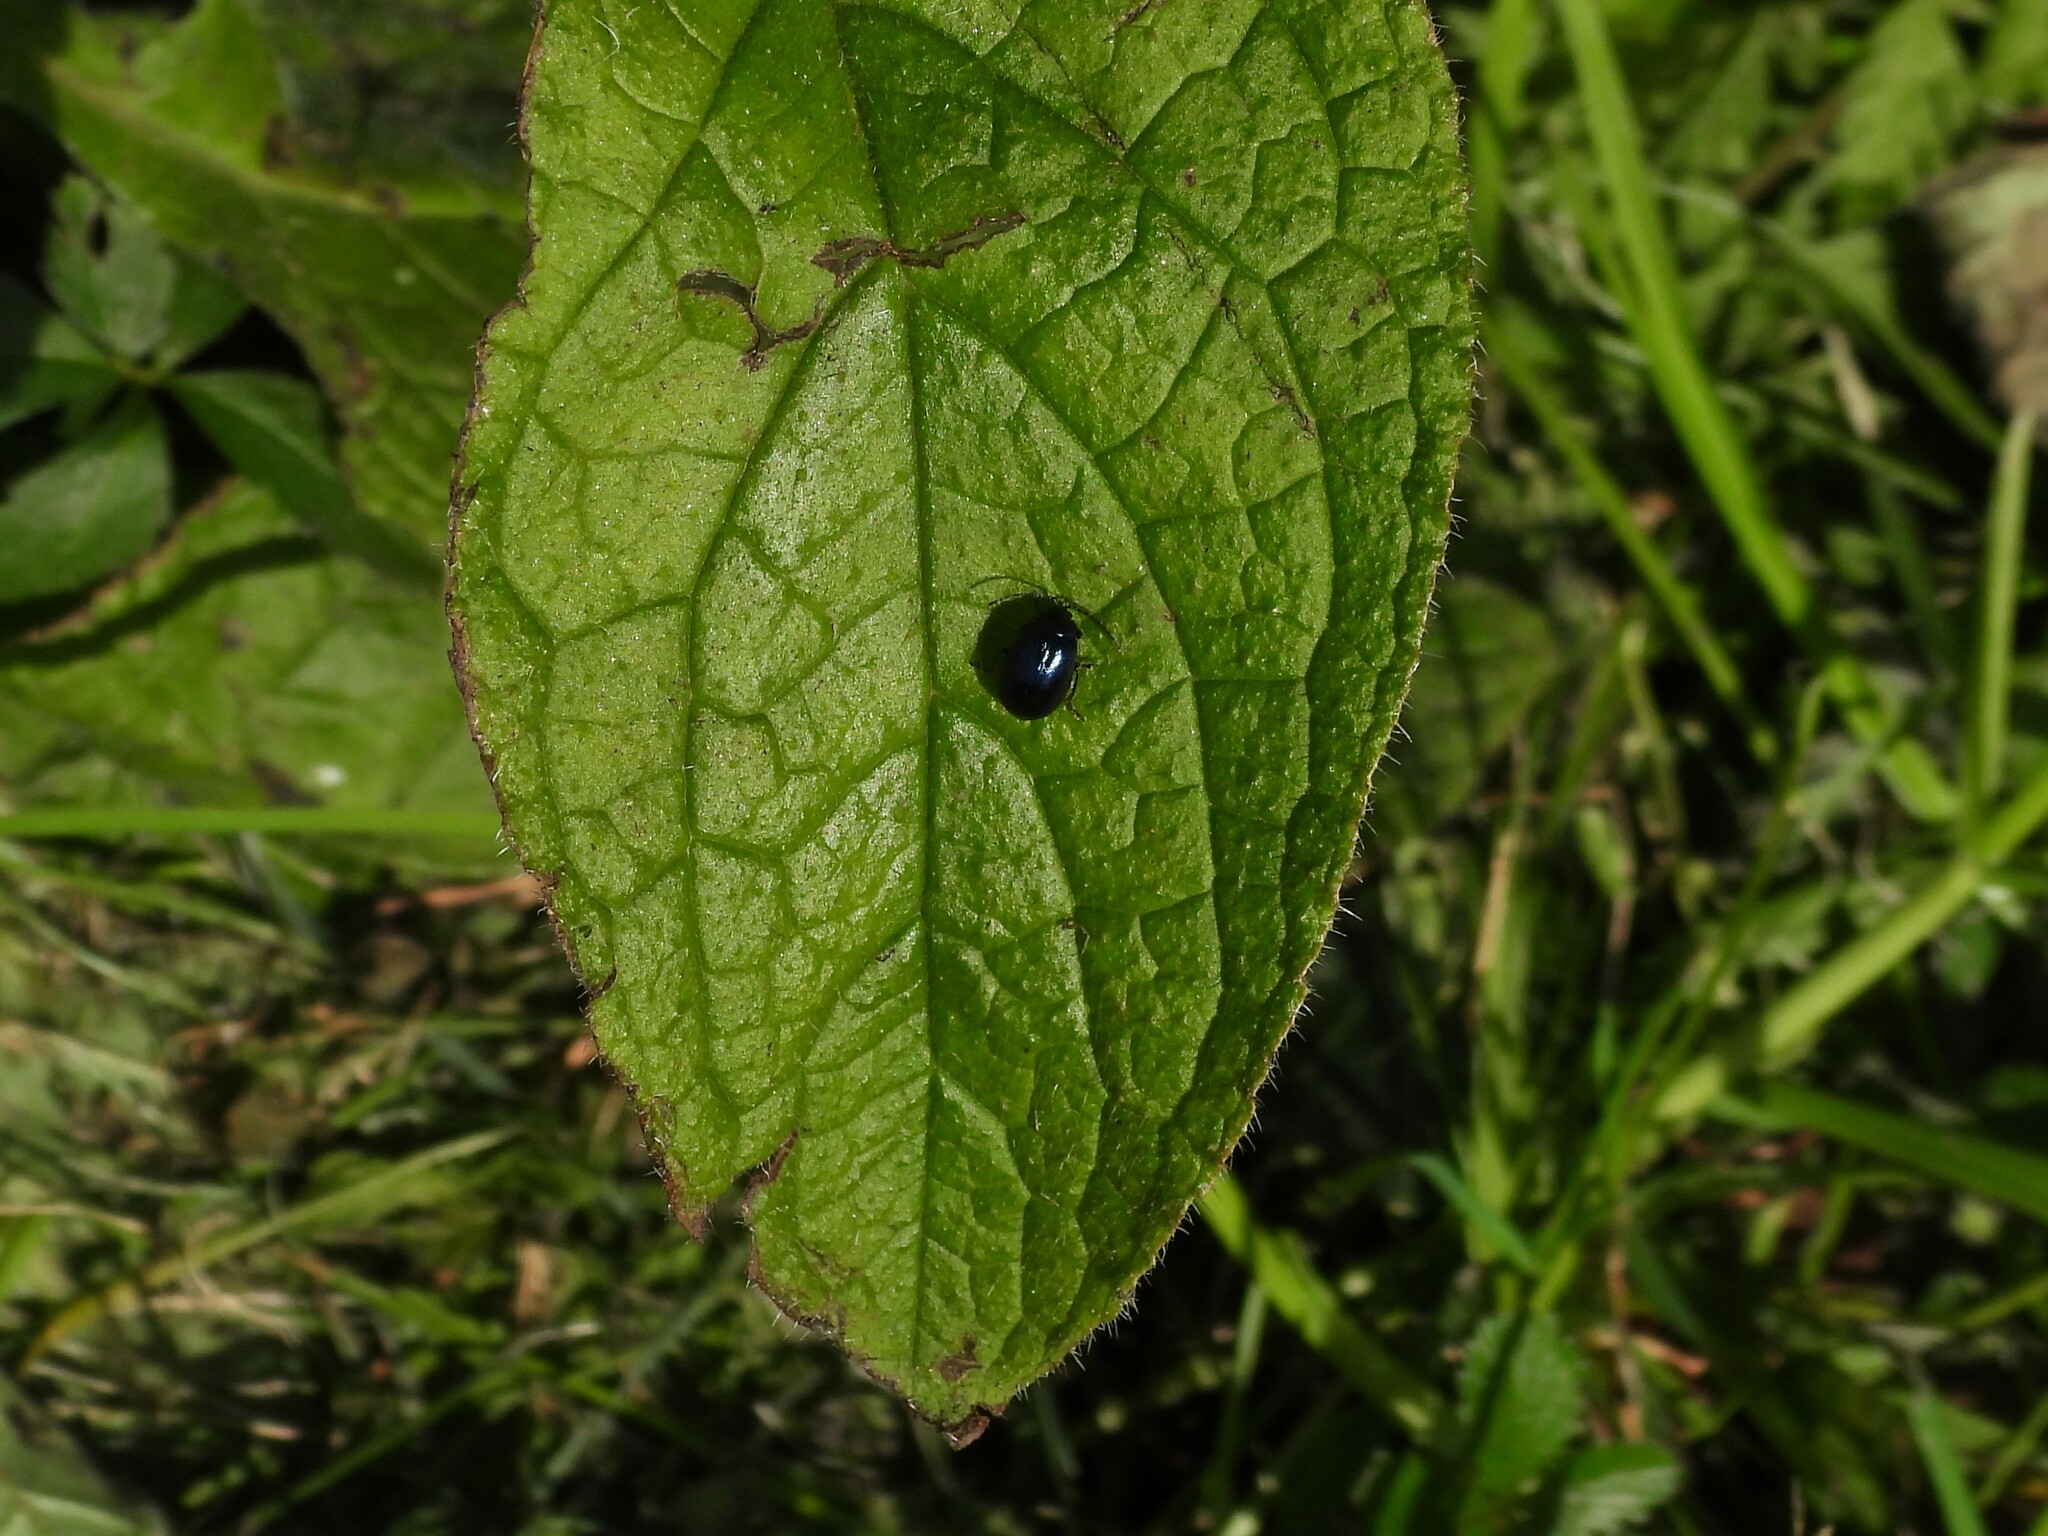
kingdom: Animalia
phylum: Arthropoda
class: Insecta
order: Coleoptera
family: Chrysomelidae
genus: Agelastica
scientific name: Agelastica alni
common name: Alder leaf beetle
